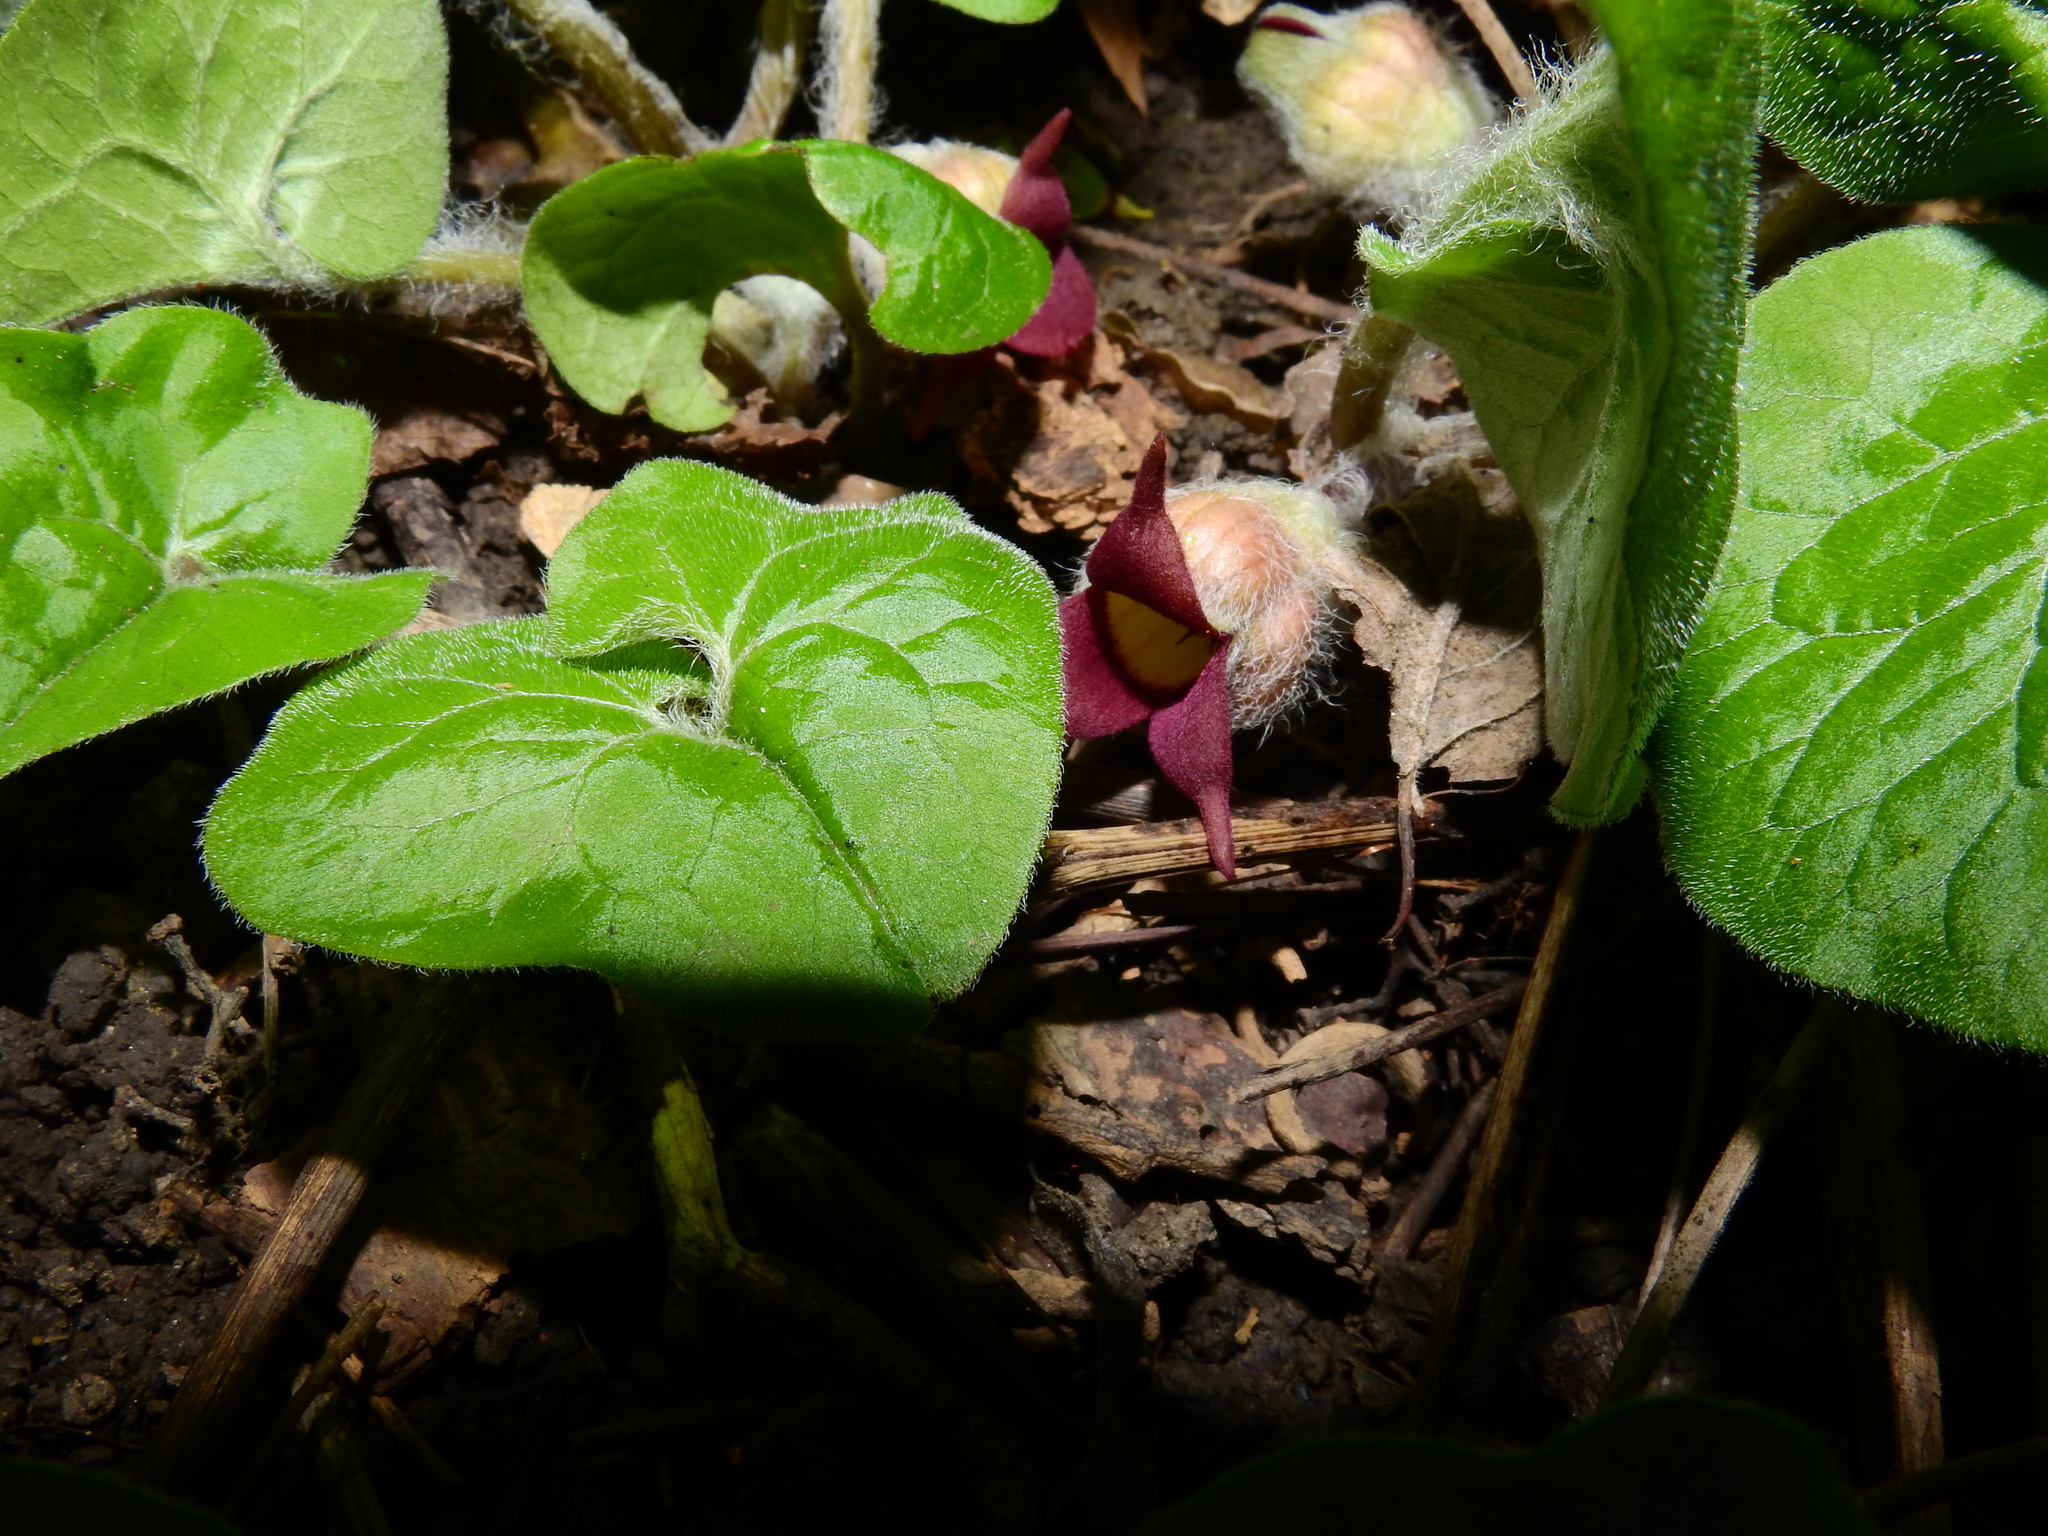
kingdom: Plantae
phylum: Tracheophyta
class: Magnoliopsida
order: Piperales
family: Aristolochiaceae
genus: Asarum
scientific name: Asarum canadense
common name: Wild ginger
